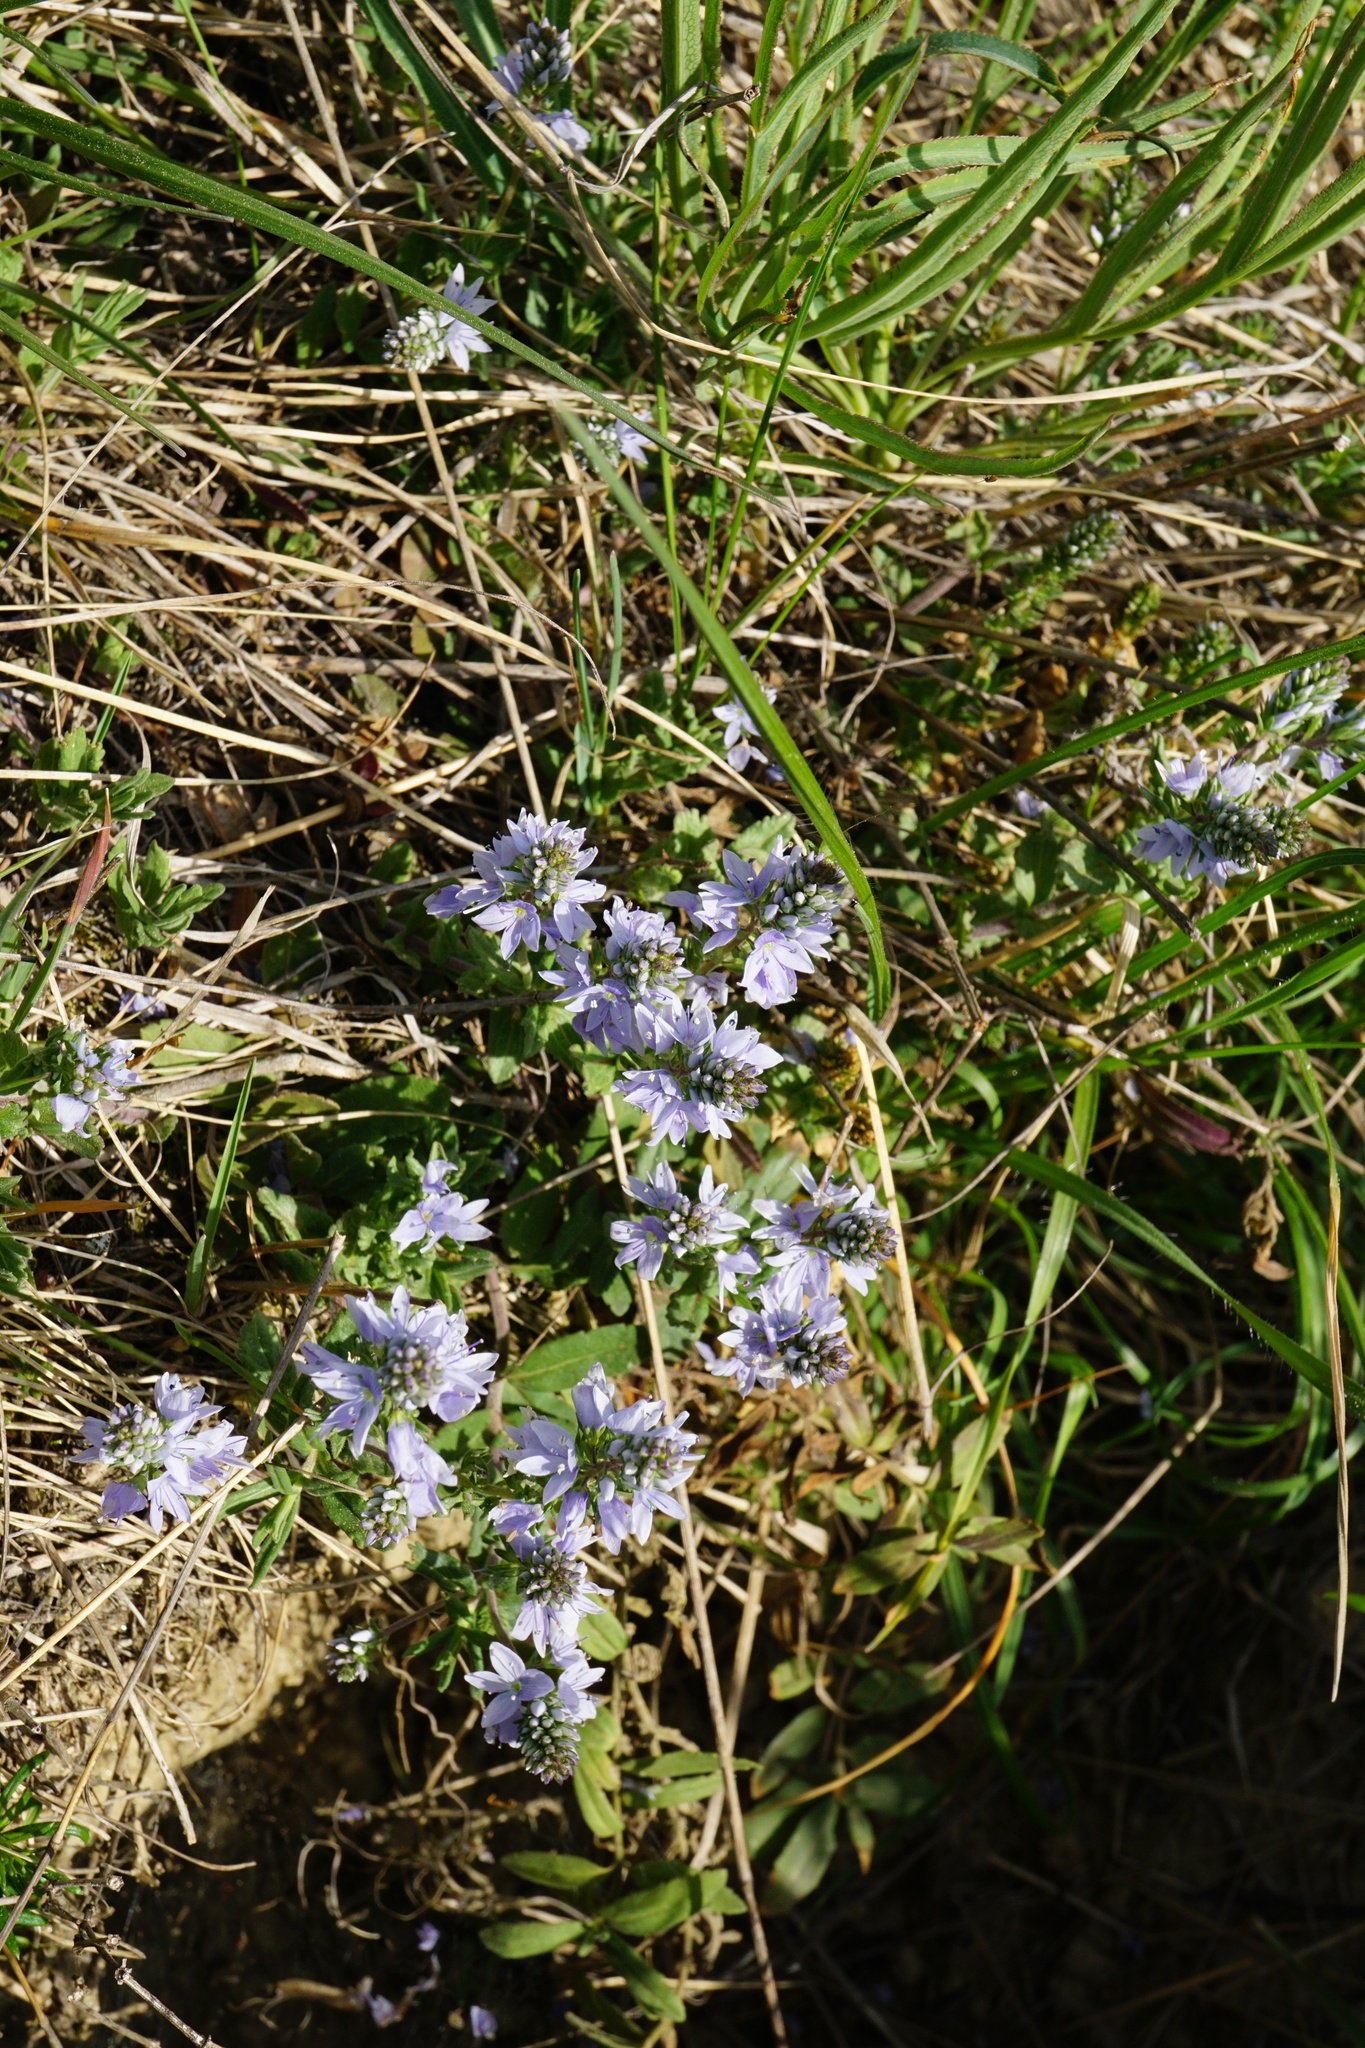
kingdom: Plantae
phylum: Tracheophyta
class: Magnoliopsida
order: Lamiales
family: Plantaginaceae
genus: Veronica
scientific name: Veronica prostrata
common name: Prostrate speedwell
